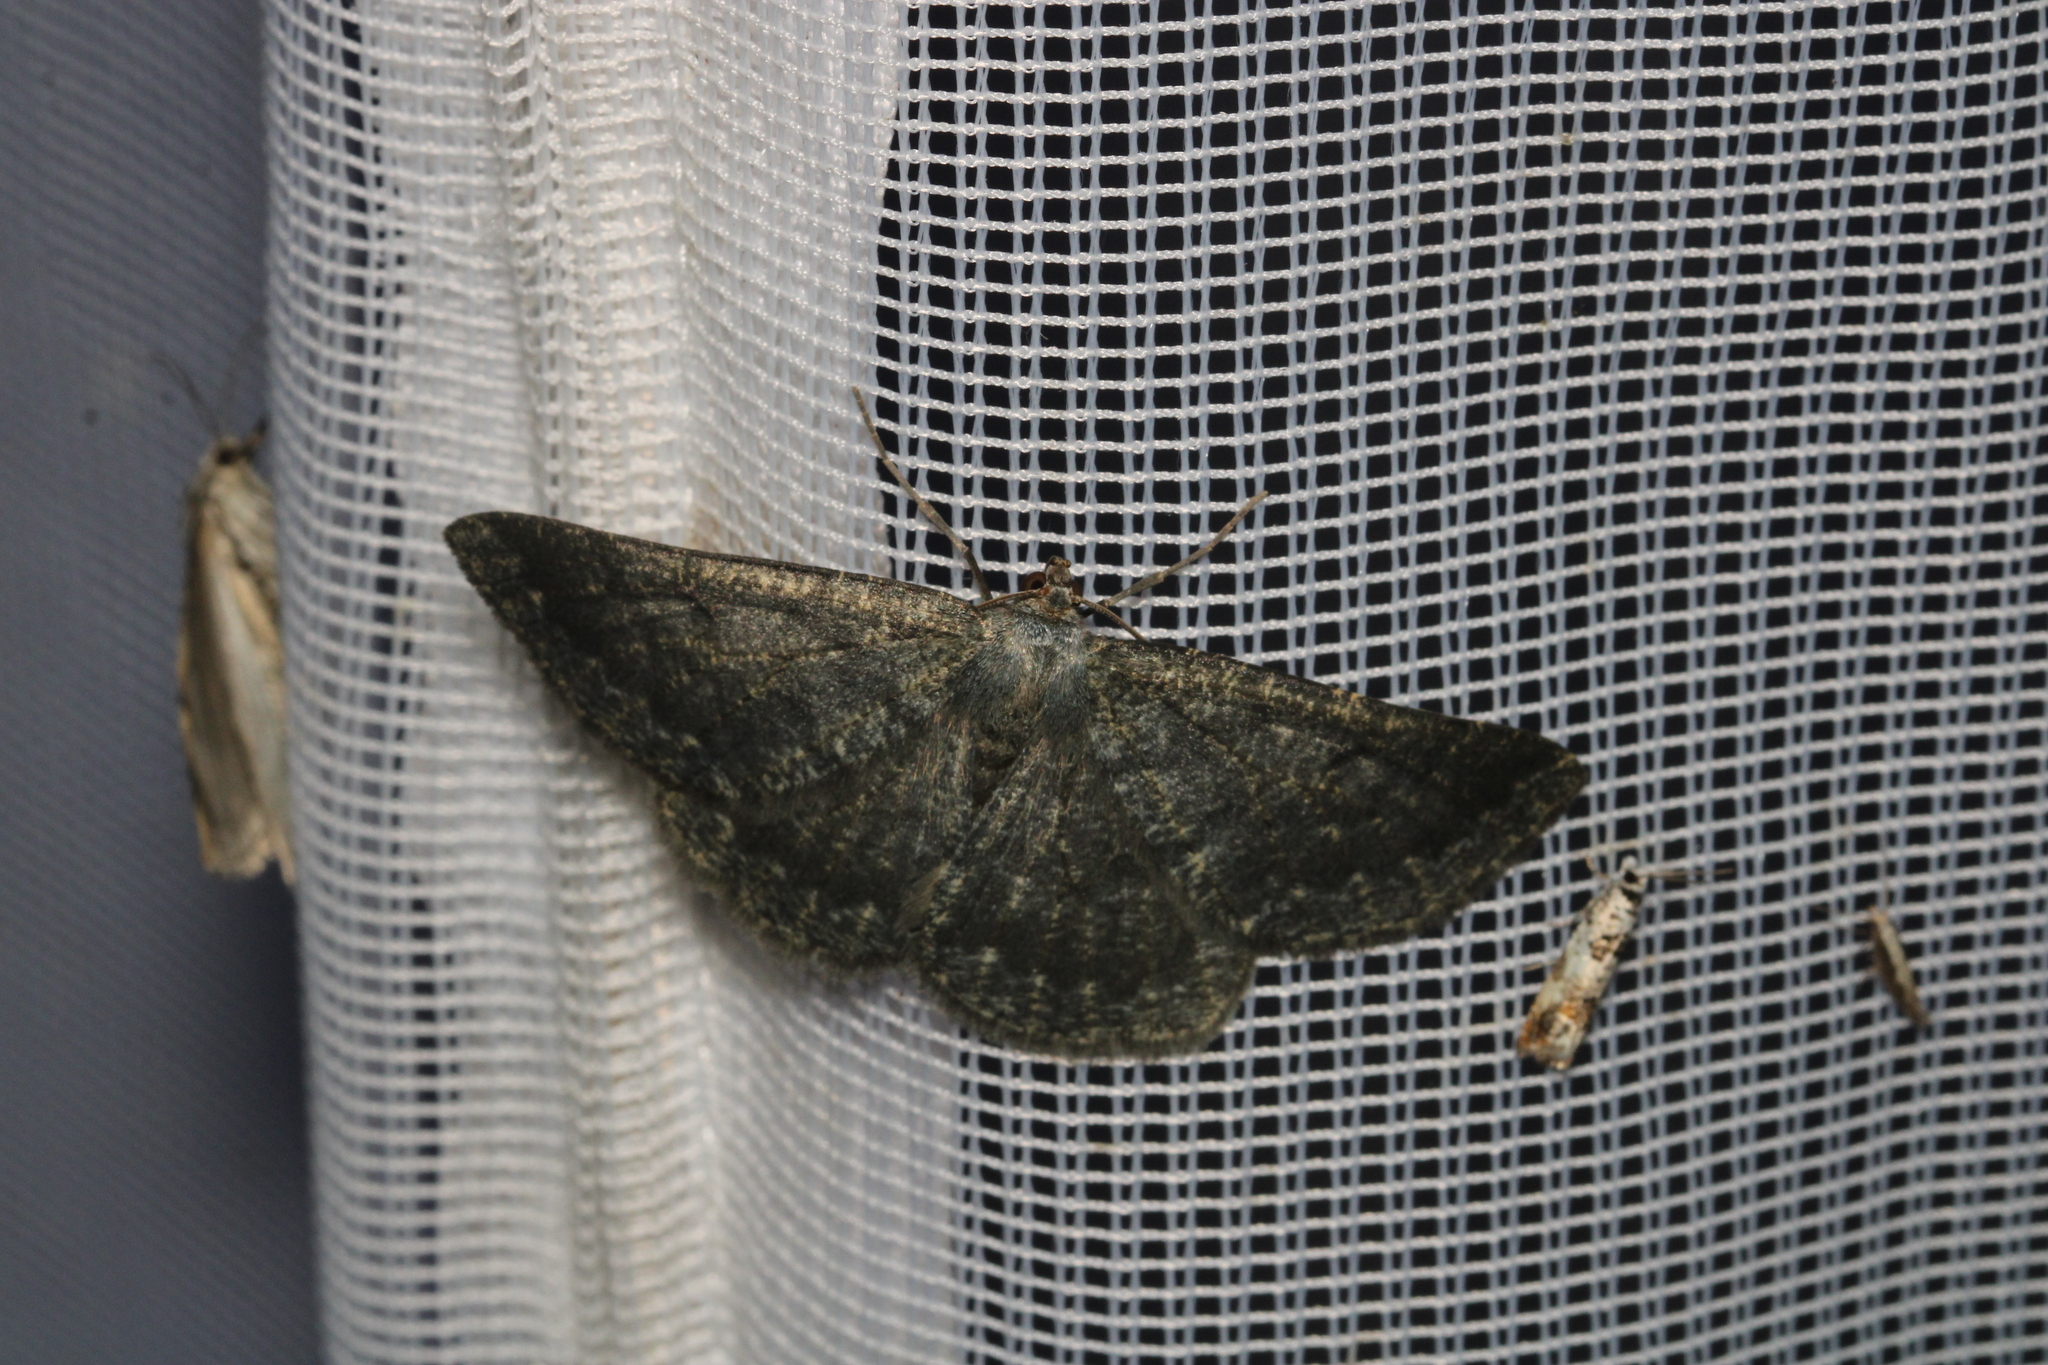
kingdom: Animalia
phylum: Arthropoda
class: Insecta
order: Lepidoptera
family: Geometridae
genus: Gnophos
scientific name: Gnophos obfuscata
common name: Scottish annulet
